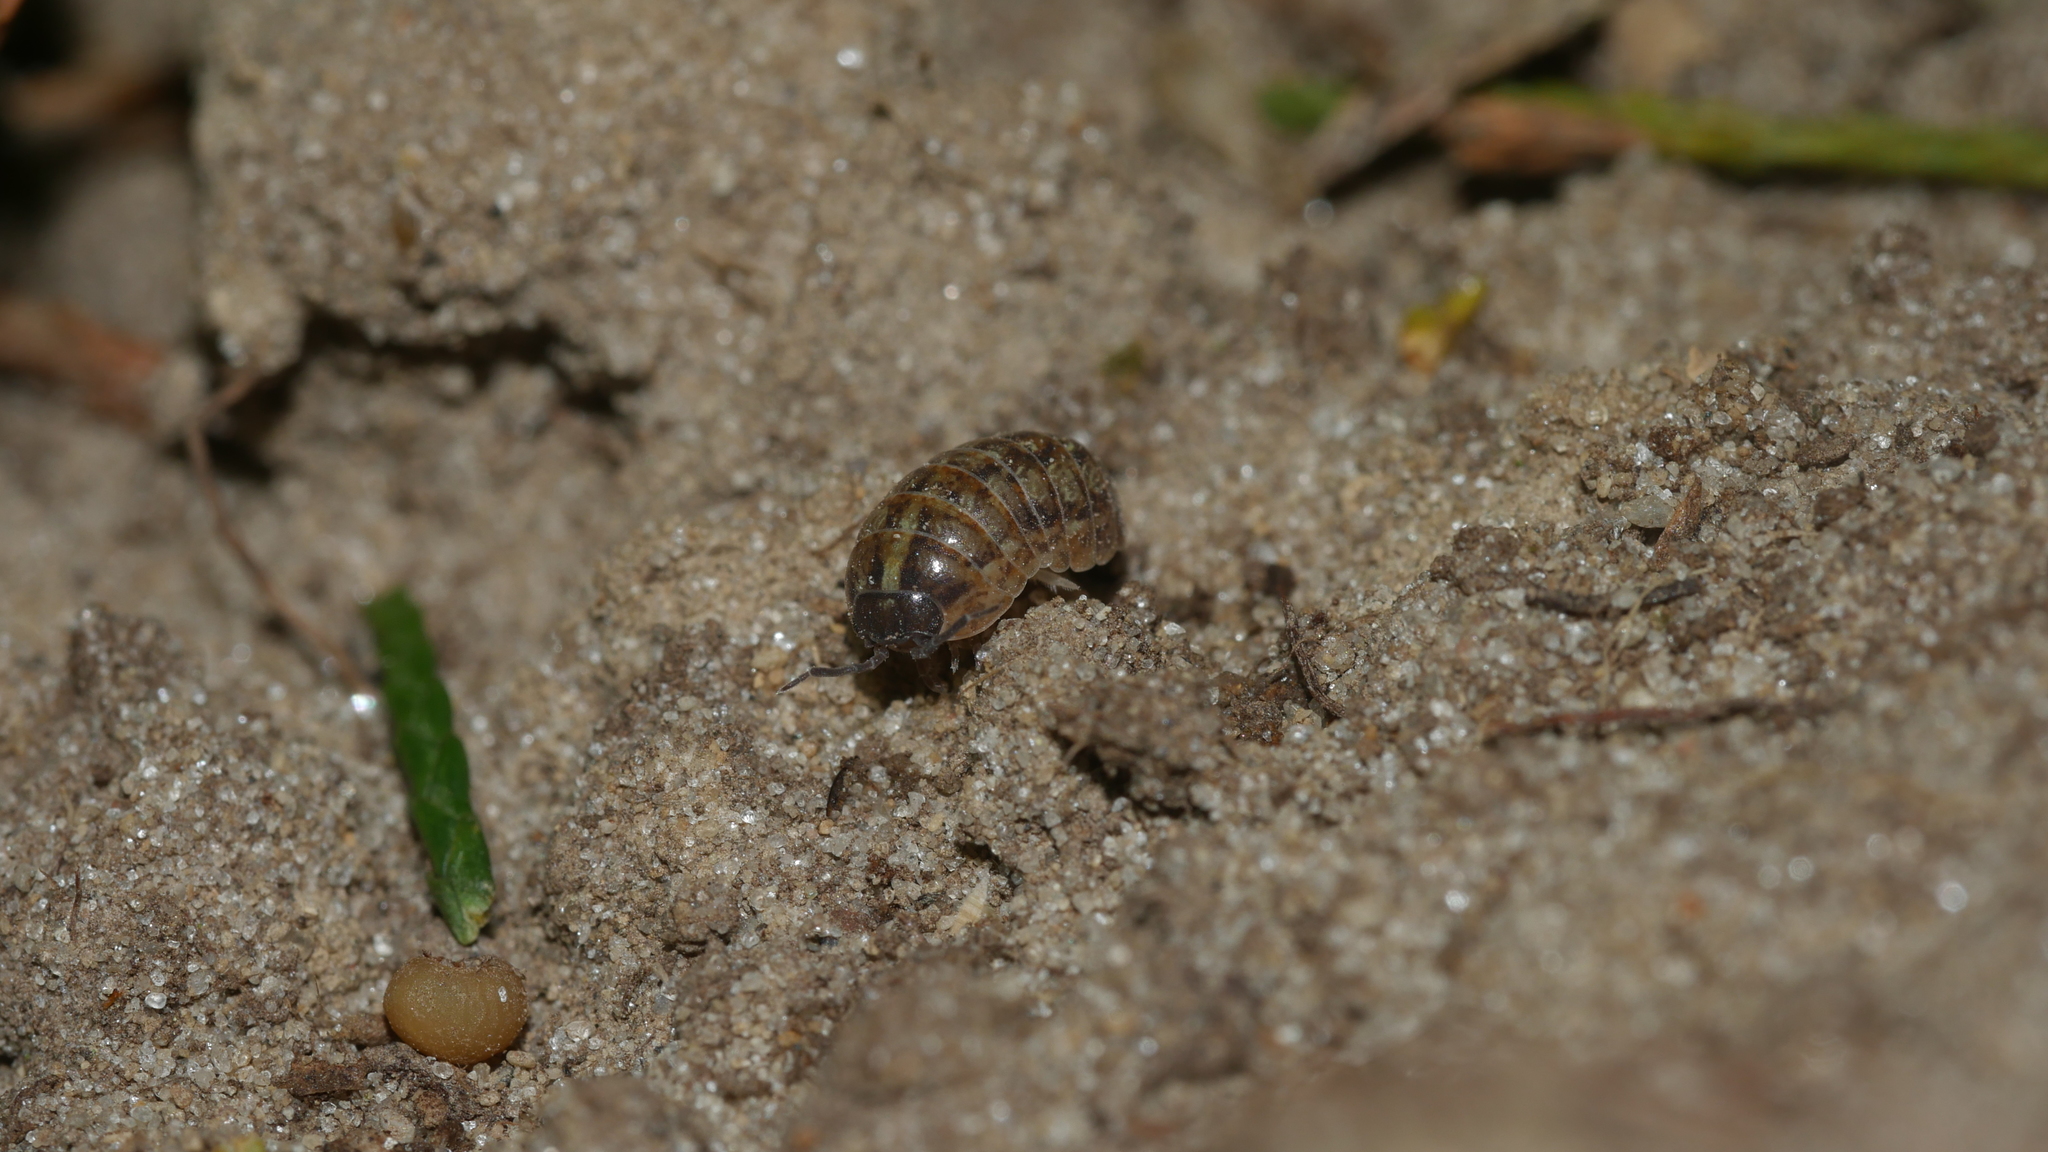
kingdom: Animalia
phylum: Arthropoda
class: Malacostraca
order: Isopoda
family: Armadillidiidae
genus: Armadillidium
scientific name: Armadillidium vulgare
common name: Common pill woodlouse
